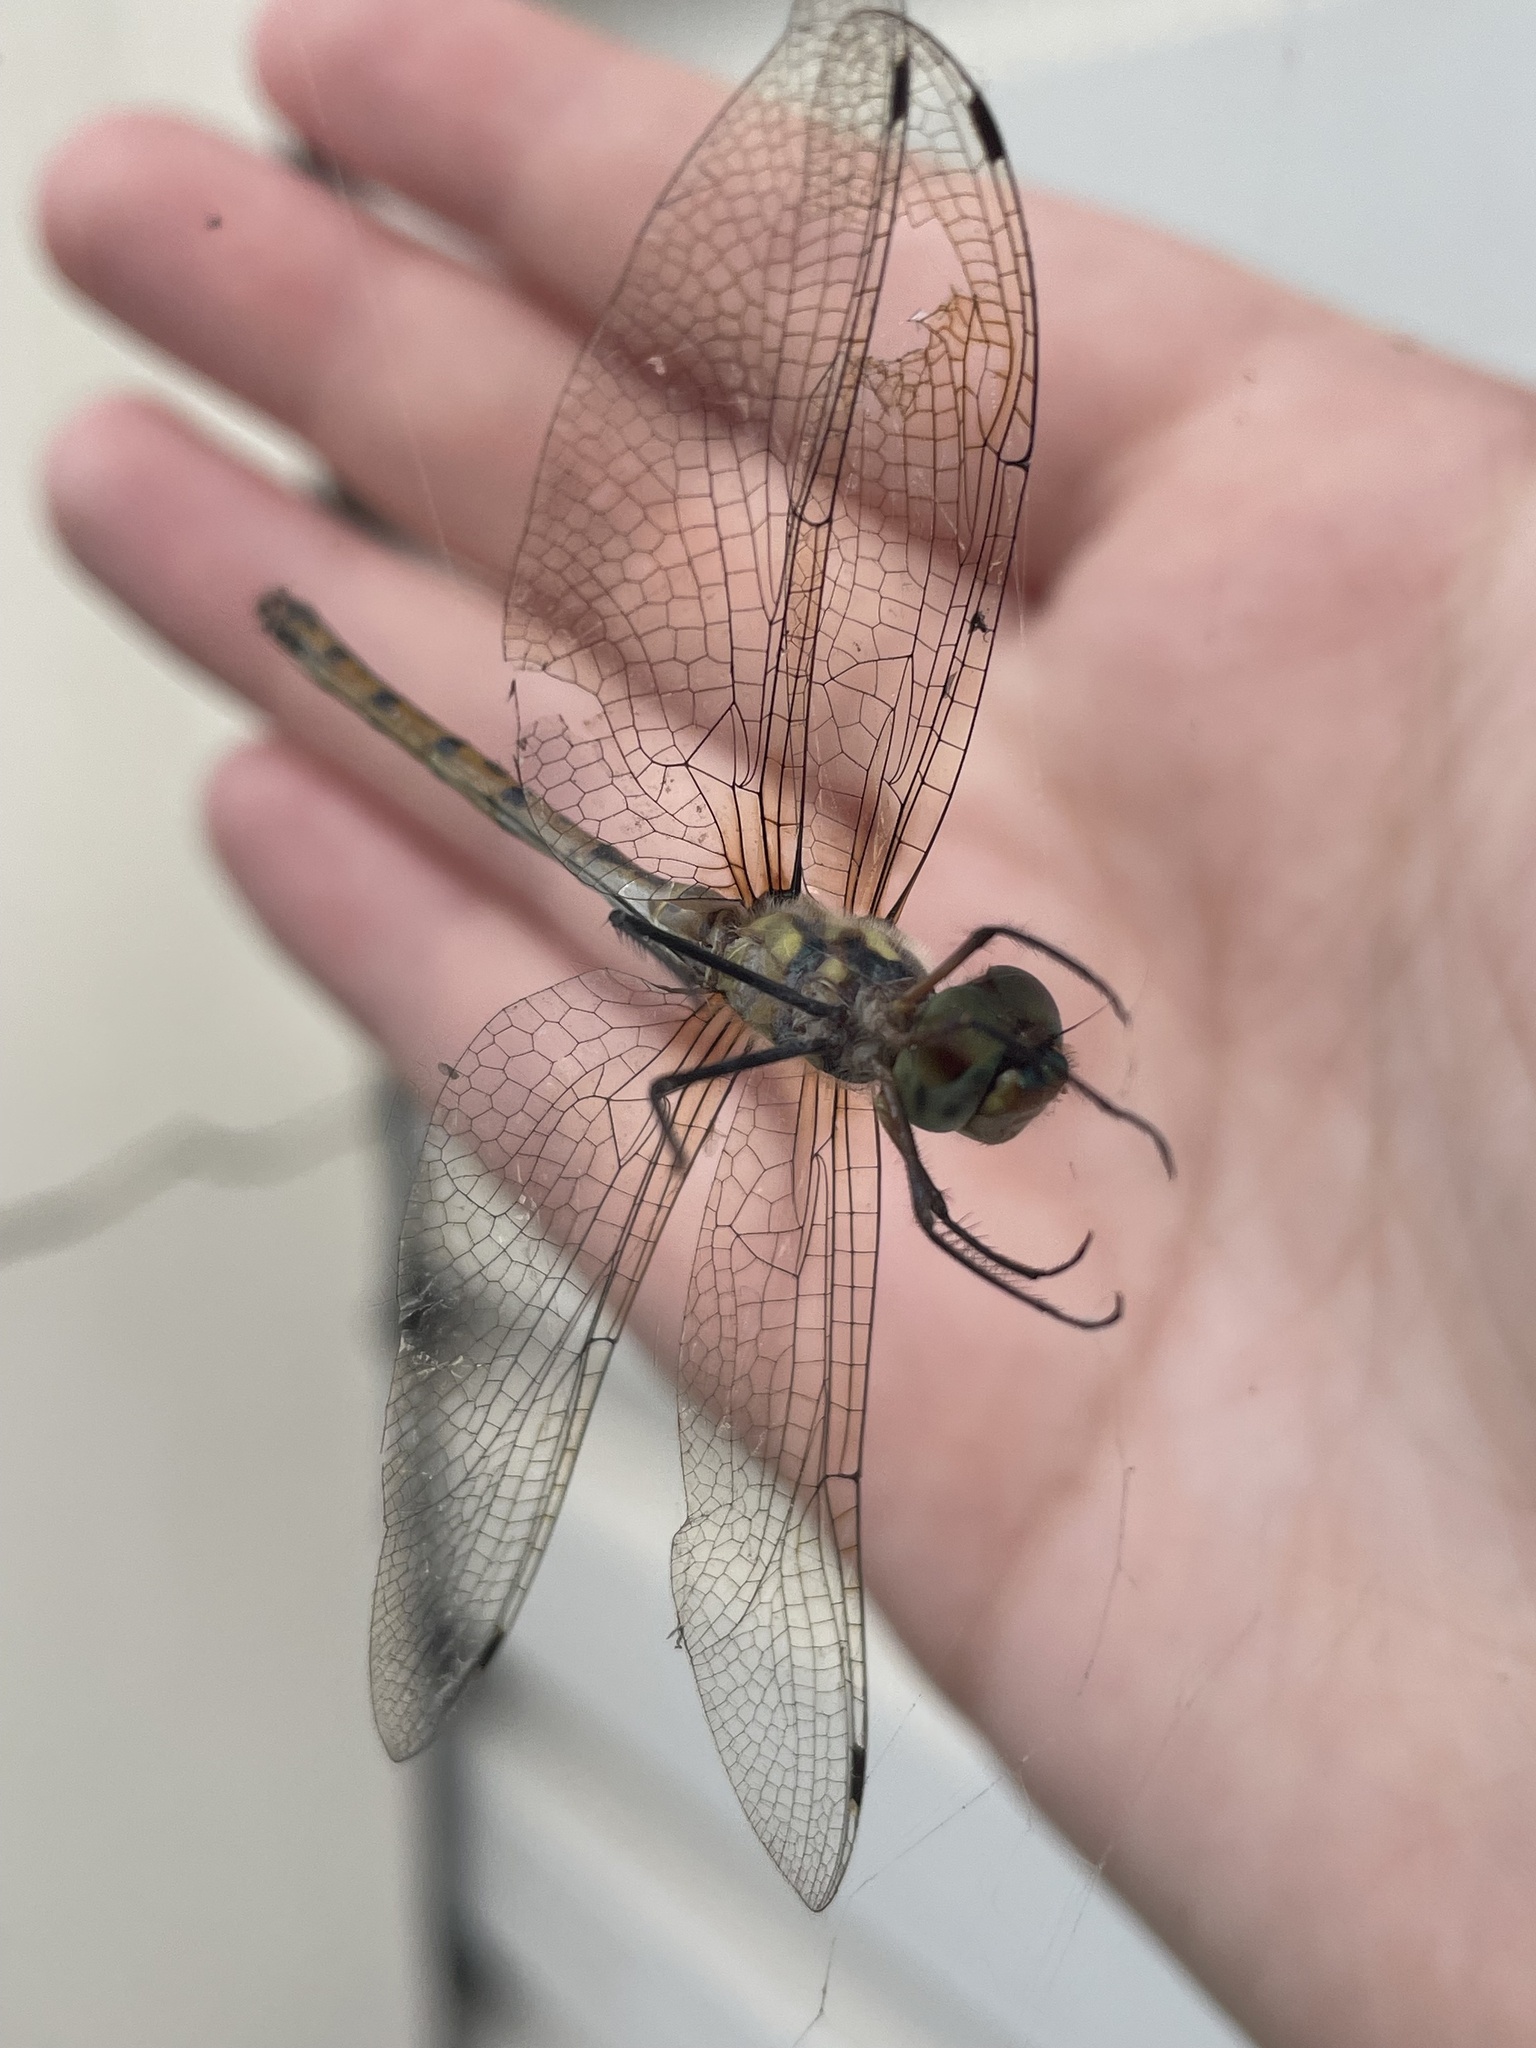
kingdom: Animalia
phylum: Arthropoda
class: Insecta
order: Odonata
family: Corduliidae
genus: Hemicordulia
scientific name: Hemicordulia australiae
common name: Sentry dragonfly
